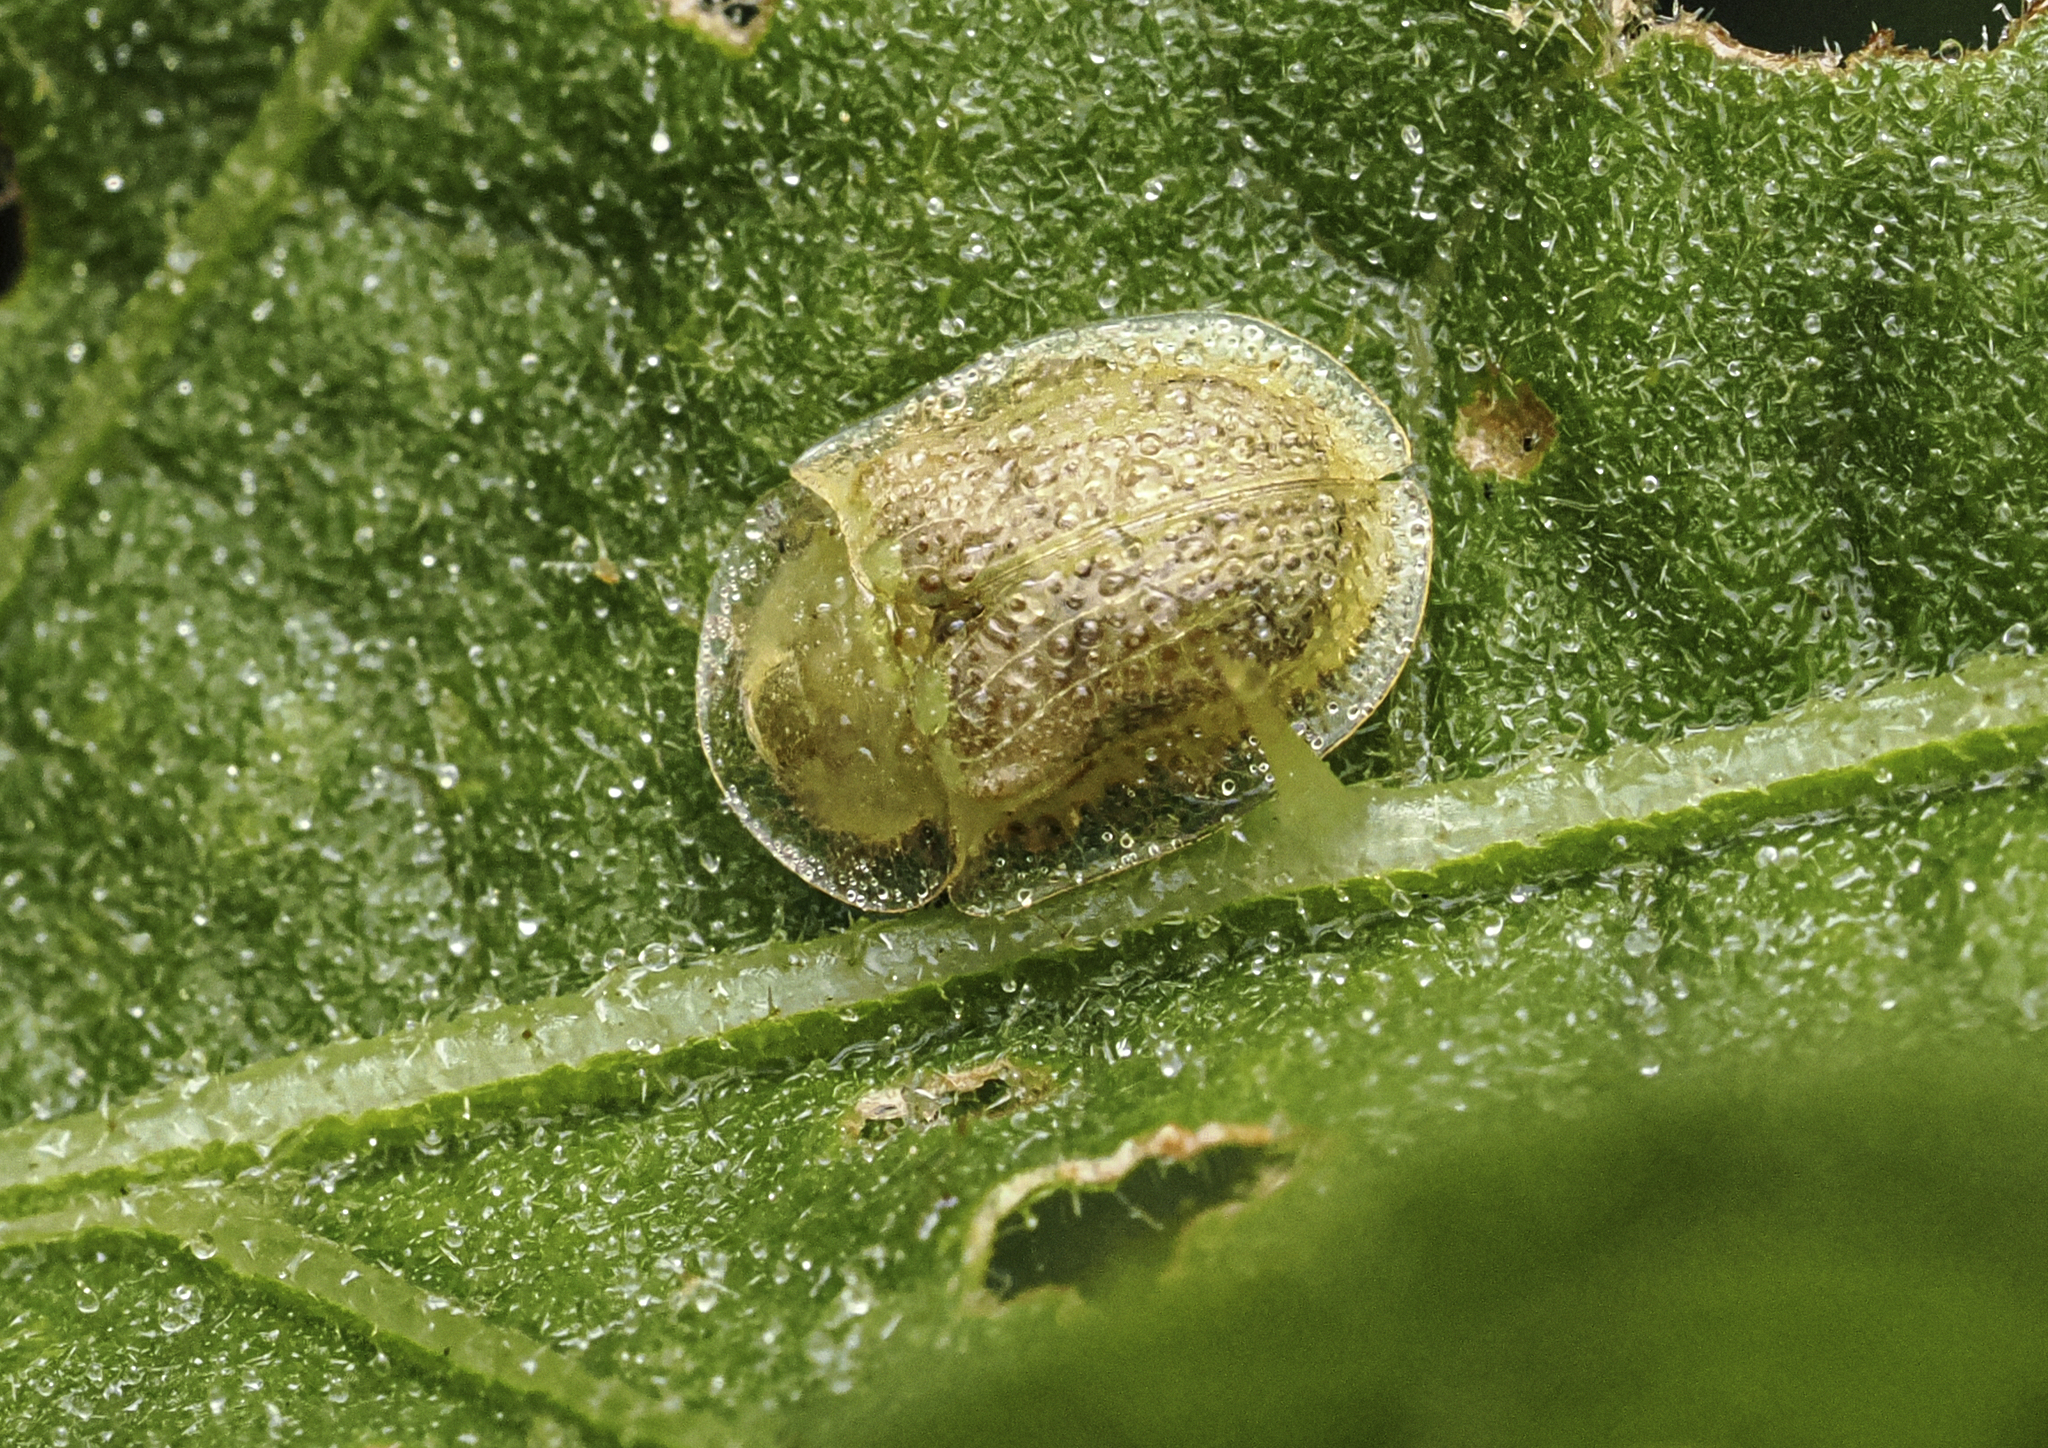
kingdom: Animalia
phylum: Arthropoda
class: Insecta
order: Coleoptera
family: Chrysomelidae
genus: Gratiana
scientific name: Gratiana pallidula
